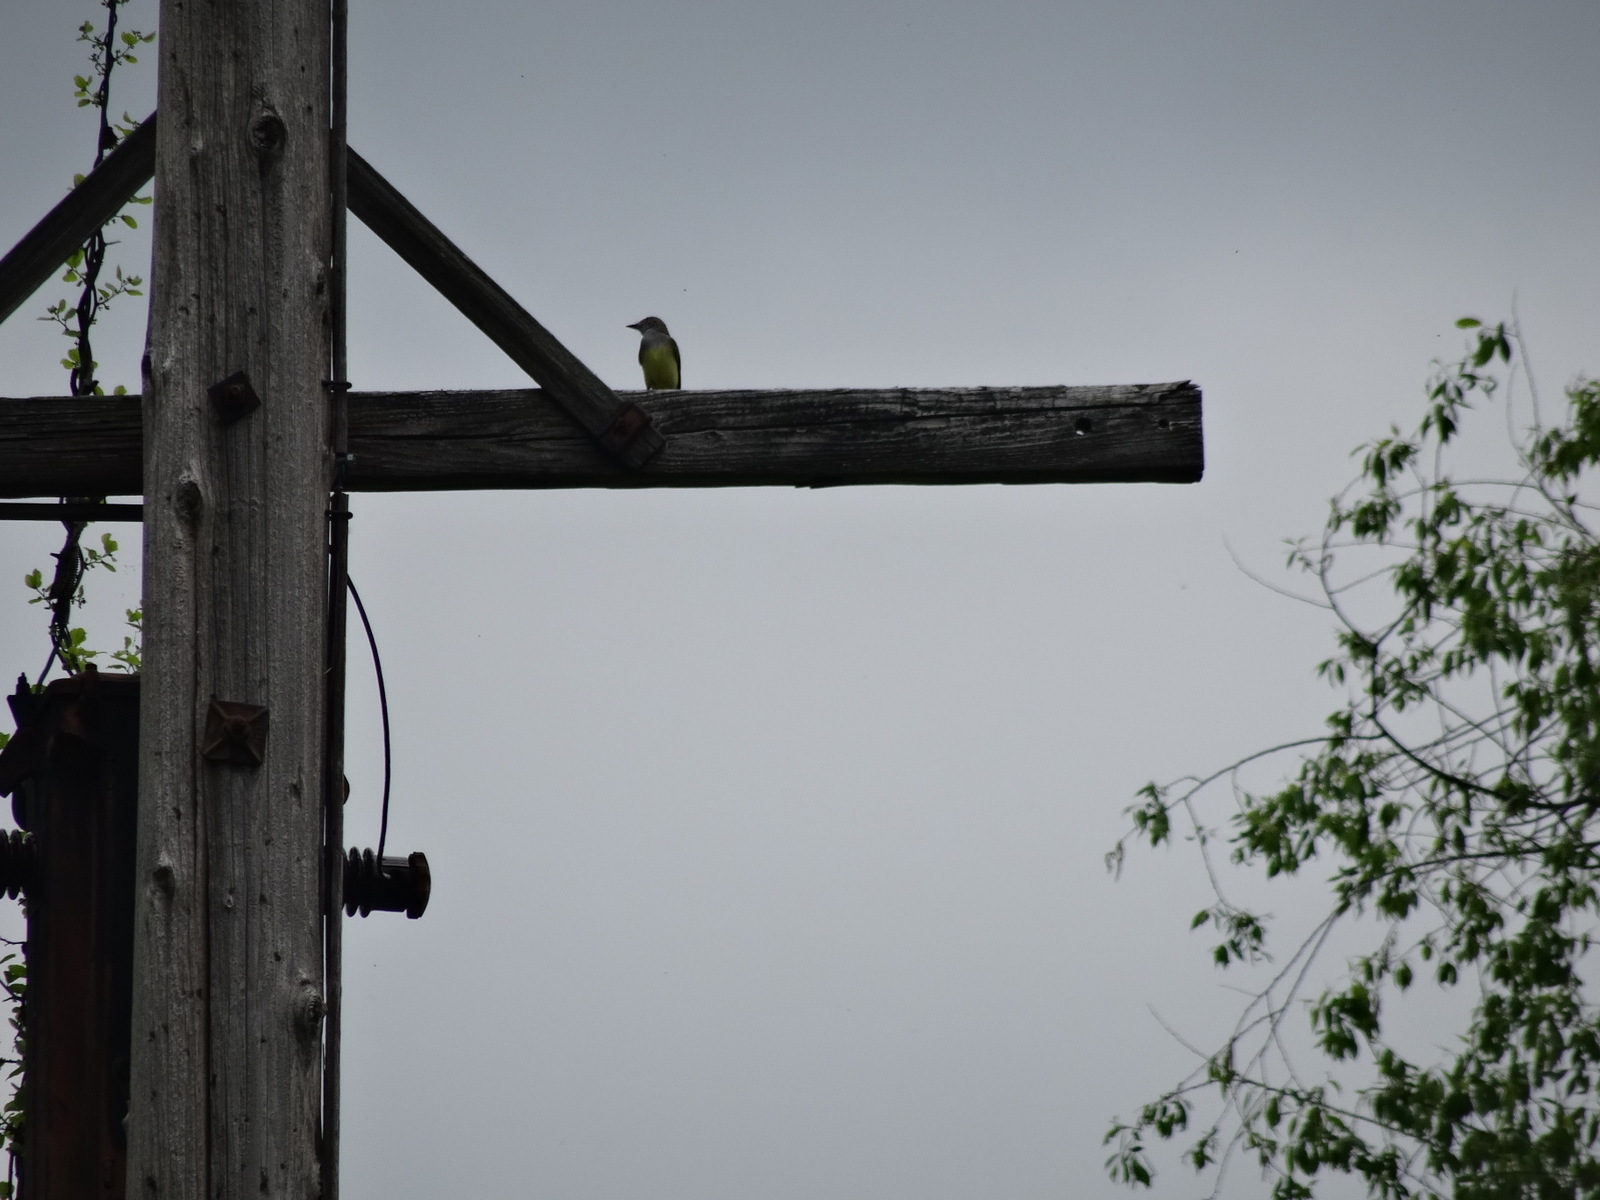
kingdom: Animalia
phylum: Chordata
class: Aves
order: Passeriformes
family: Tyrannidae
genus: Myiarchus
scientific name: Myiarchus crinitus
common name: Great crested flycatcher
